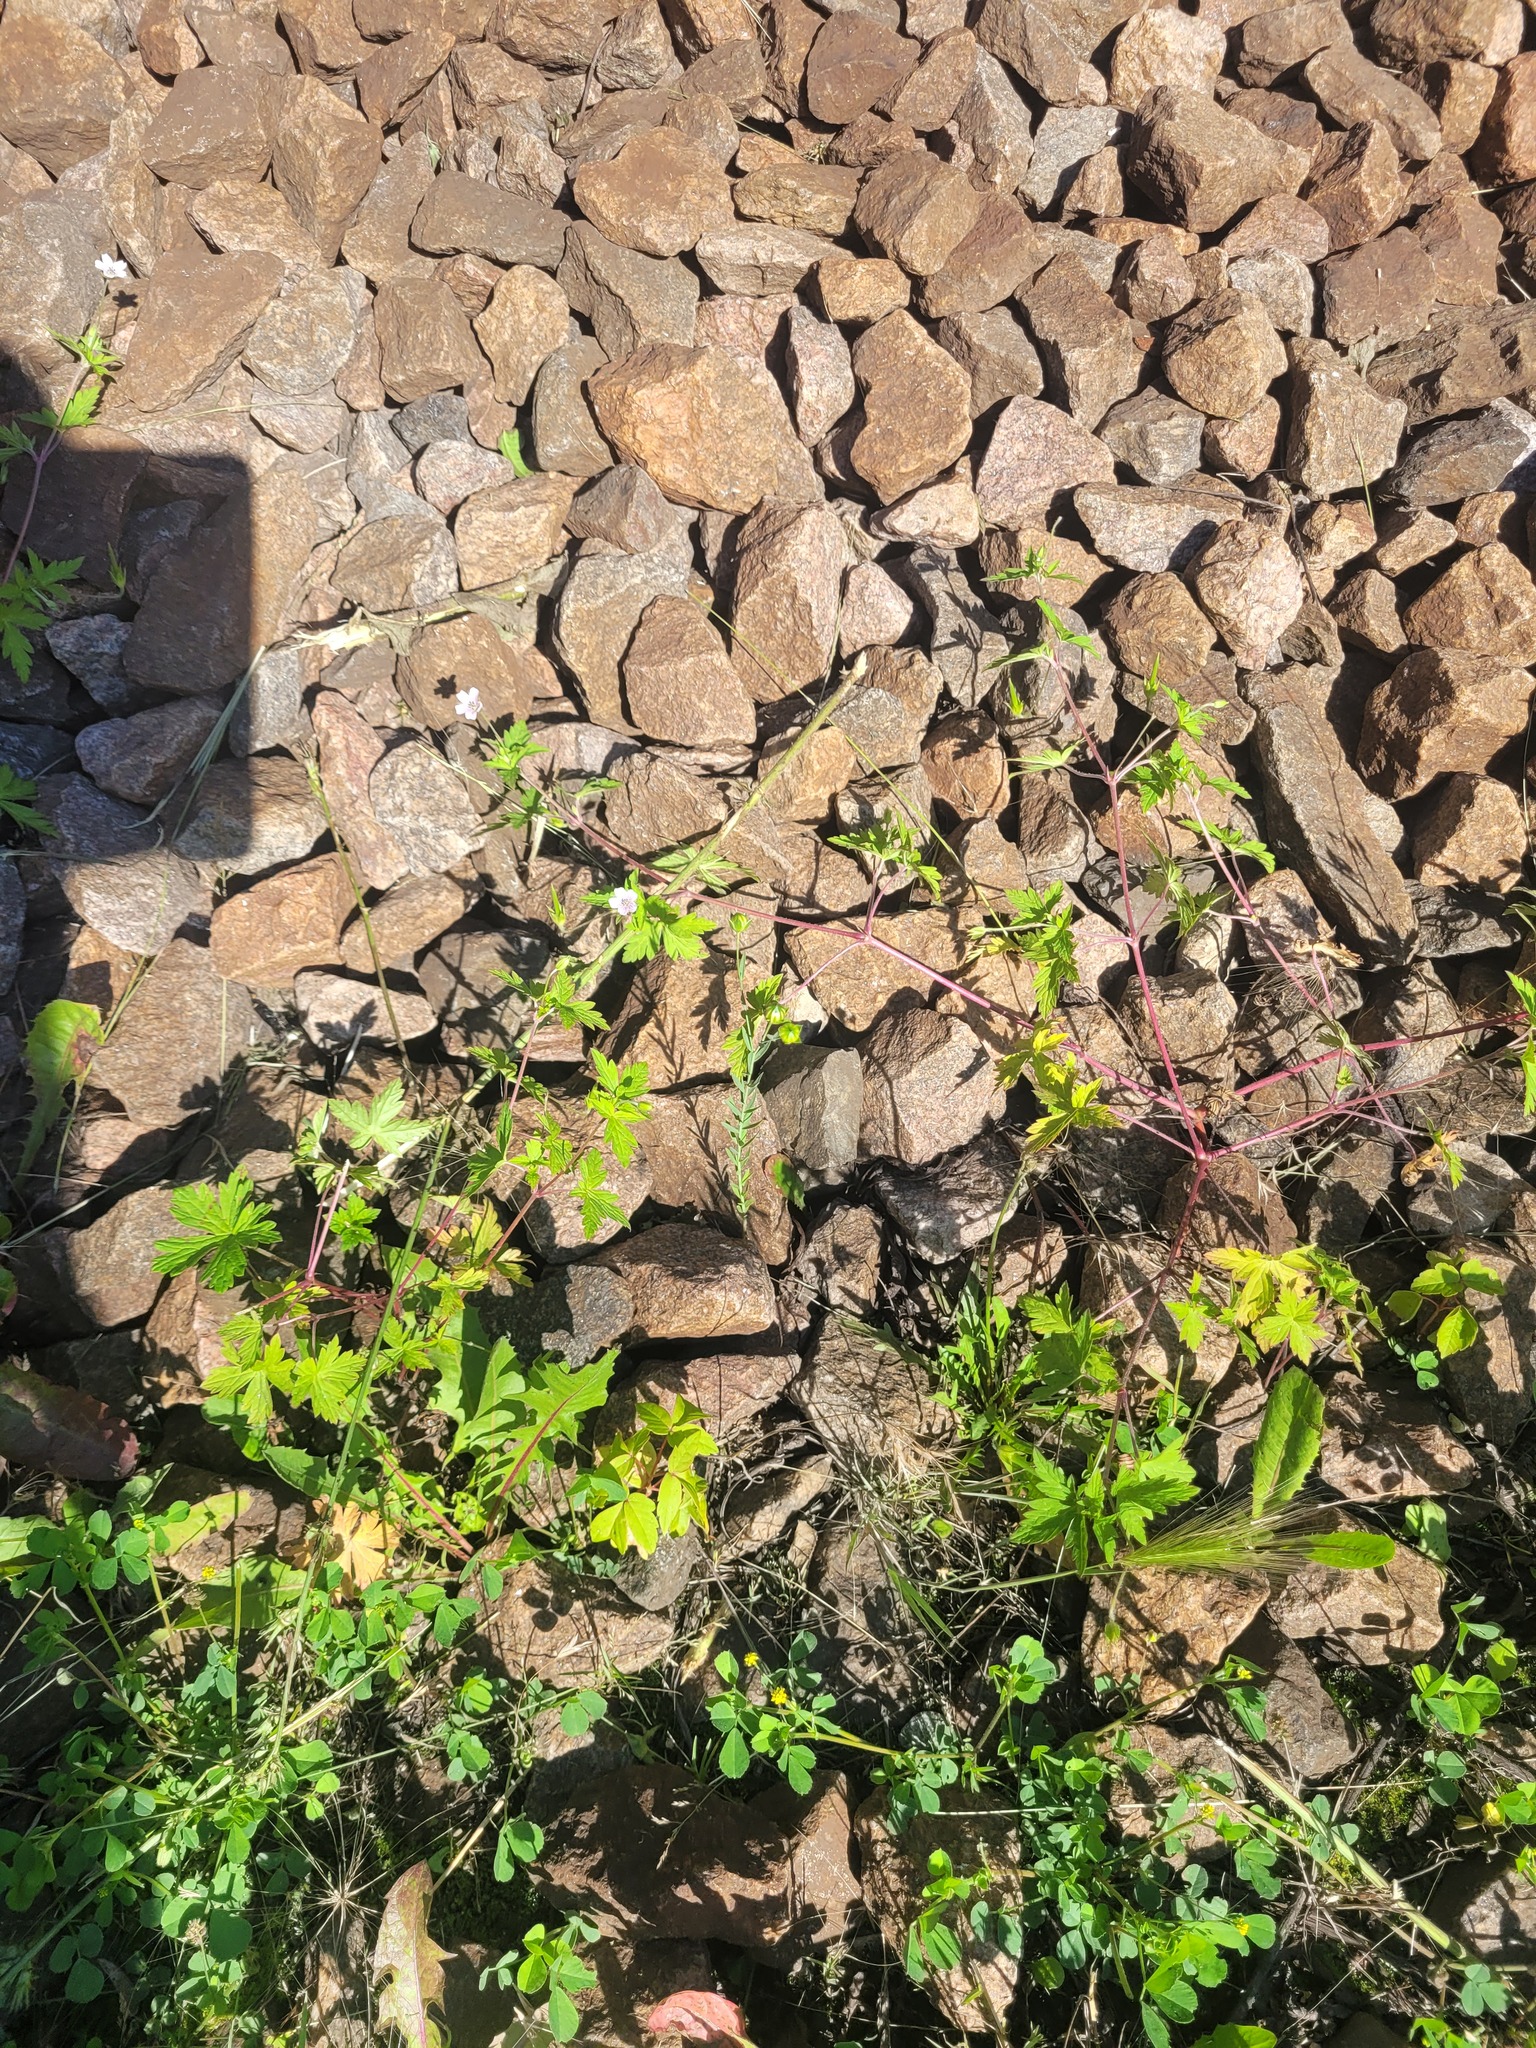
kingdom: Plantae
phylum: Tracheophyta
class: Magnoliopsida
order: Malpighiales
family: Linaceae
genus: Linum
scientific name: Linum usitatissimum
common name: Flax
